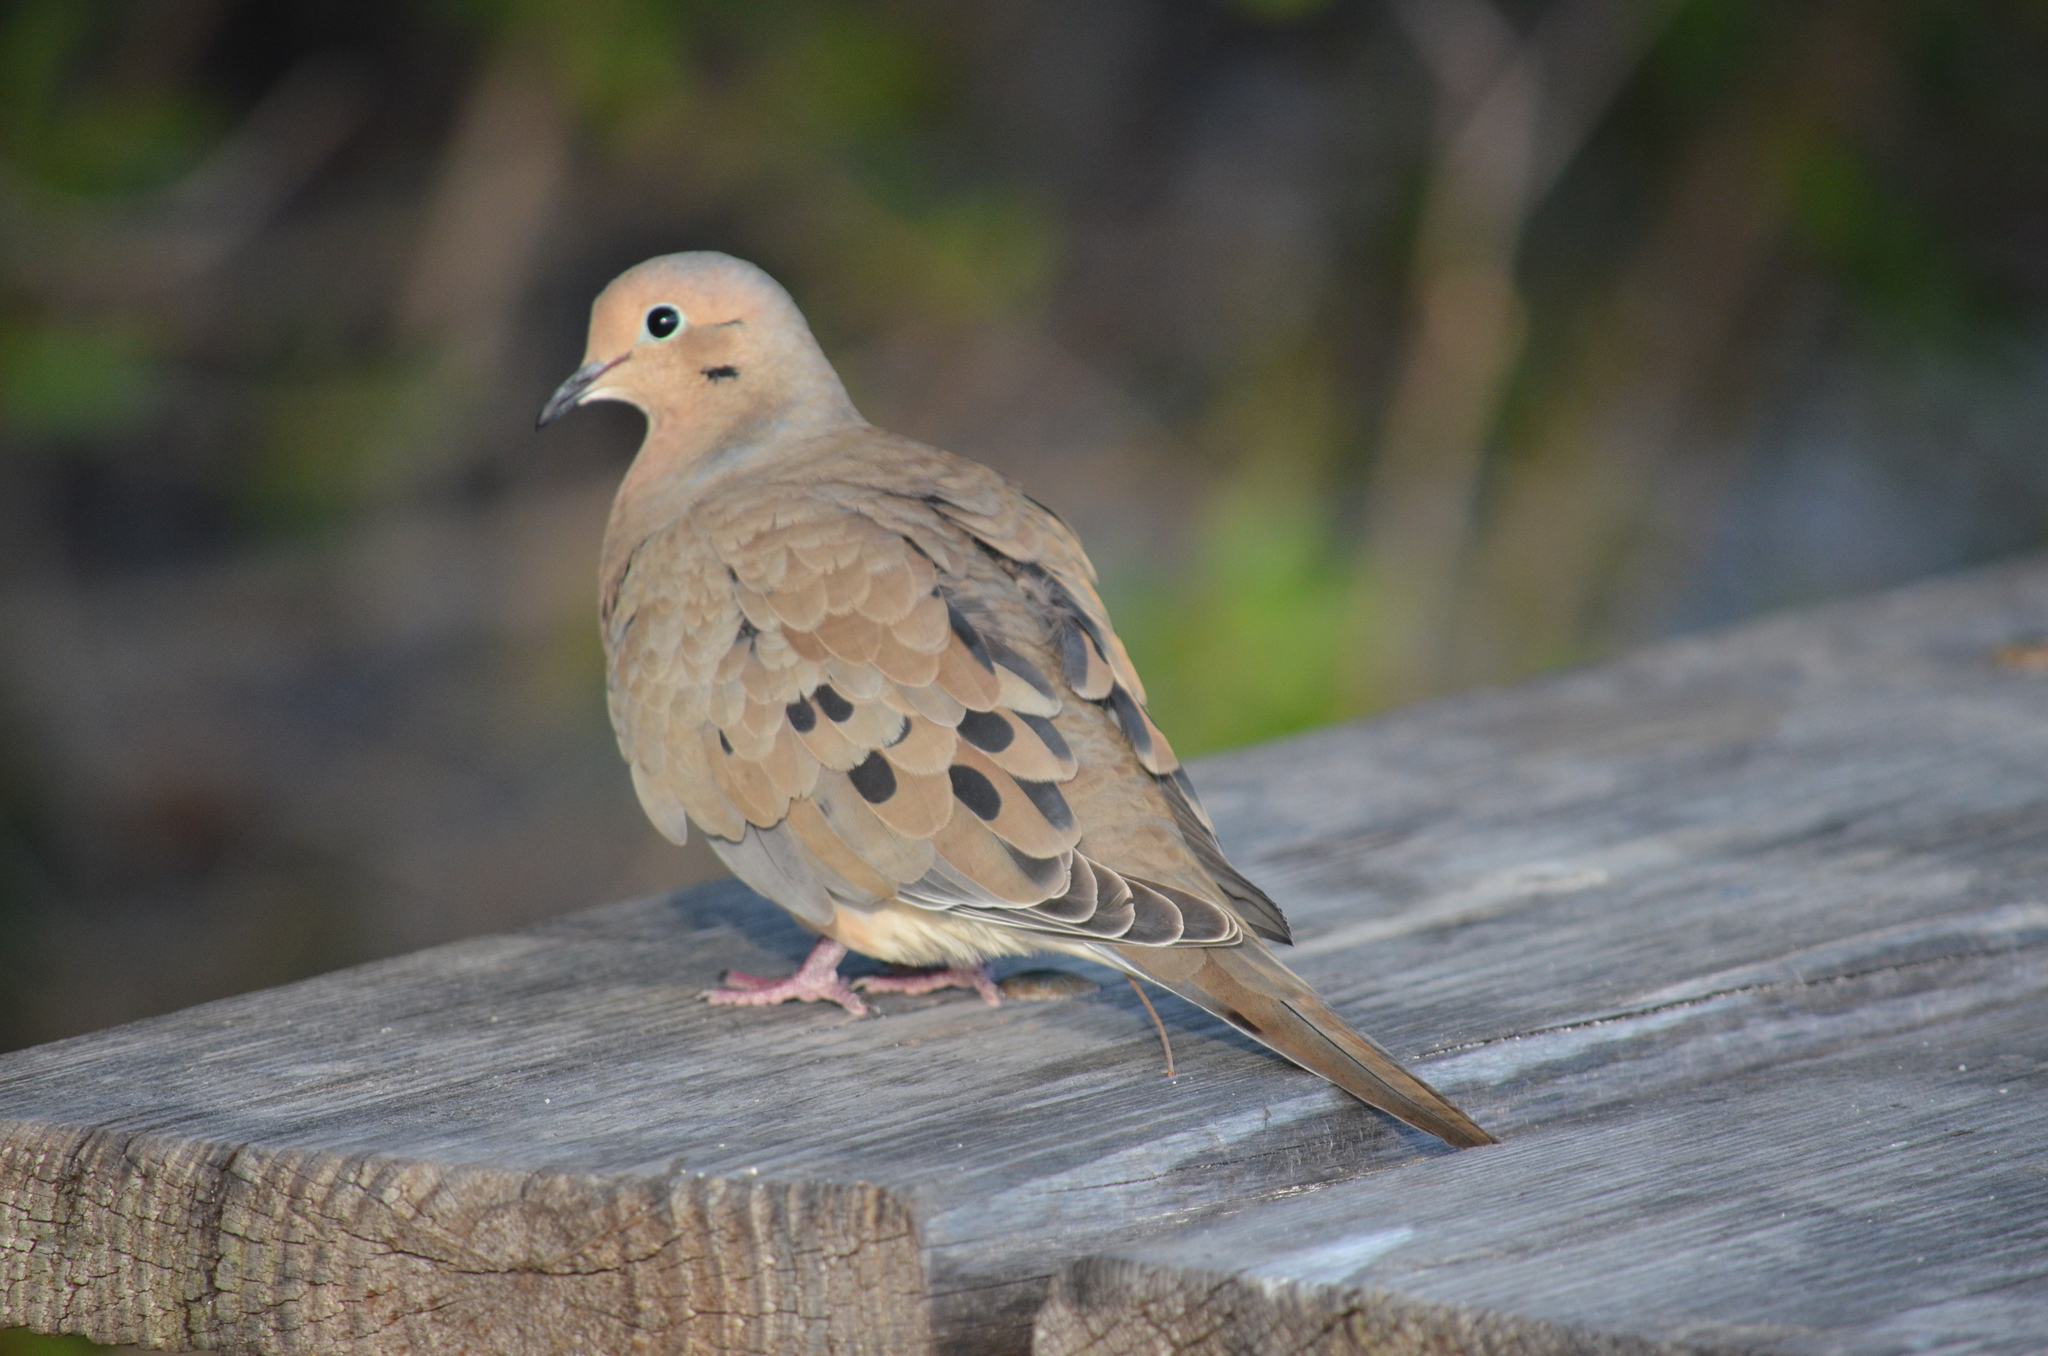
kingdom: Animalia
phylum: Chordata
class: Aves
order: Columbiformes
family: Columbidae
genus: Zenaida
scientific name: Zenaida macroura
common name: Mourning dove
